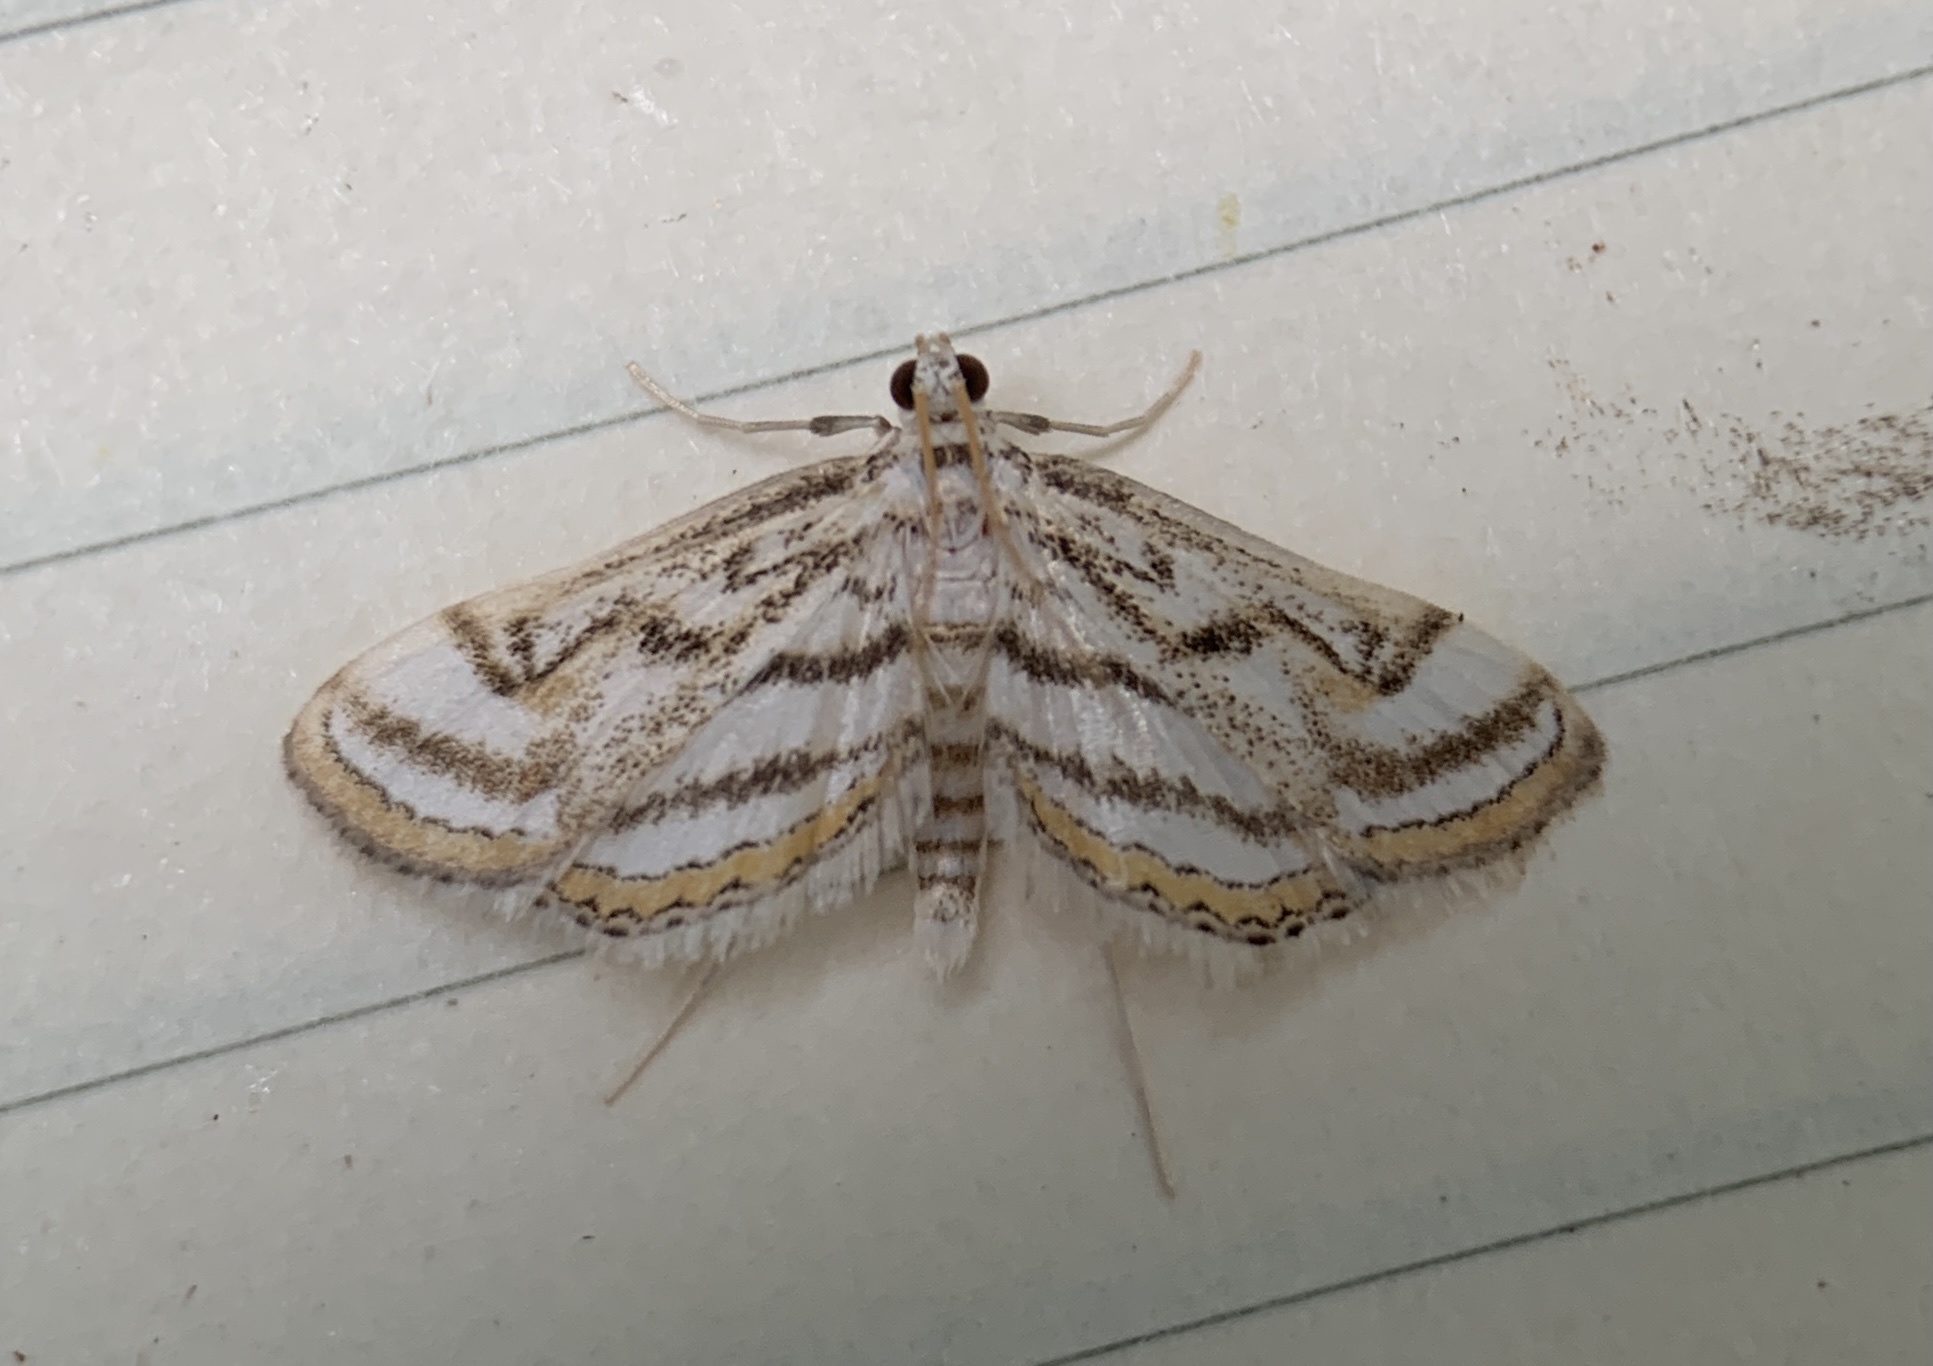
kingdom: Animalia
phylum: Arthropoda
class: Insecta
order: Lepidoptera
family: Crambidae
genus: Parapoynx
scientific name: Parapoynx badiusalis
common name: Chestnut-marked pondweed moth
